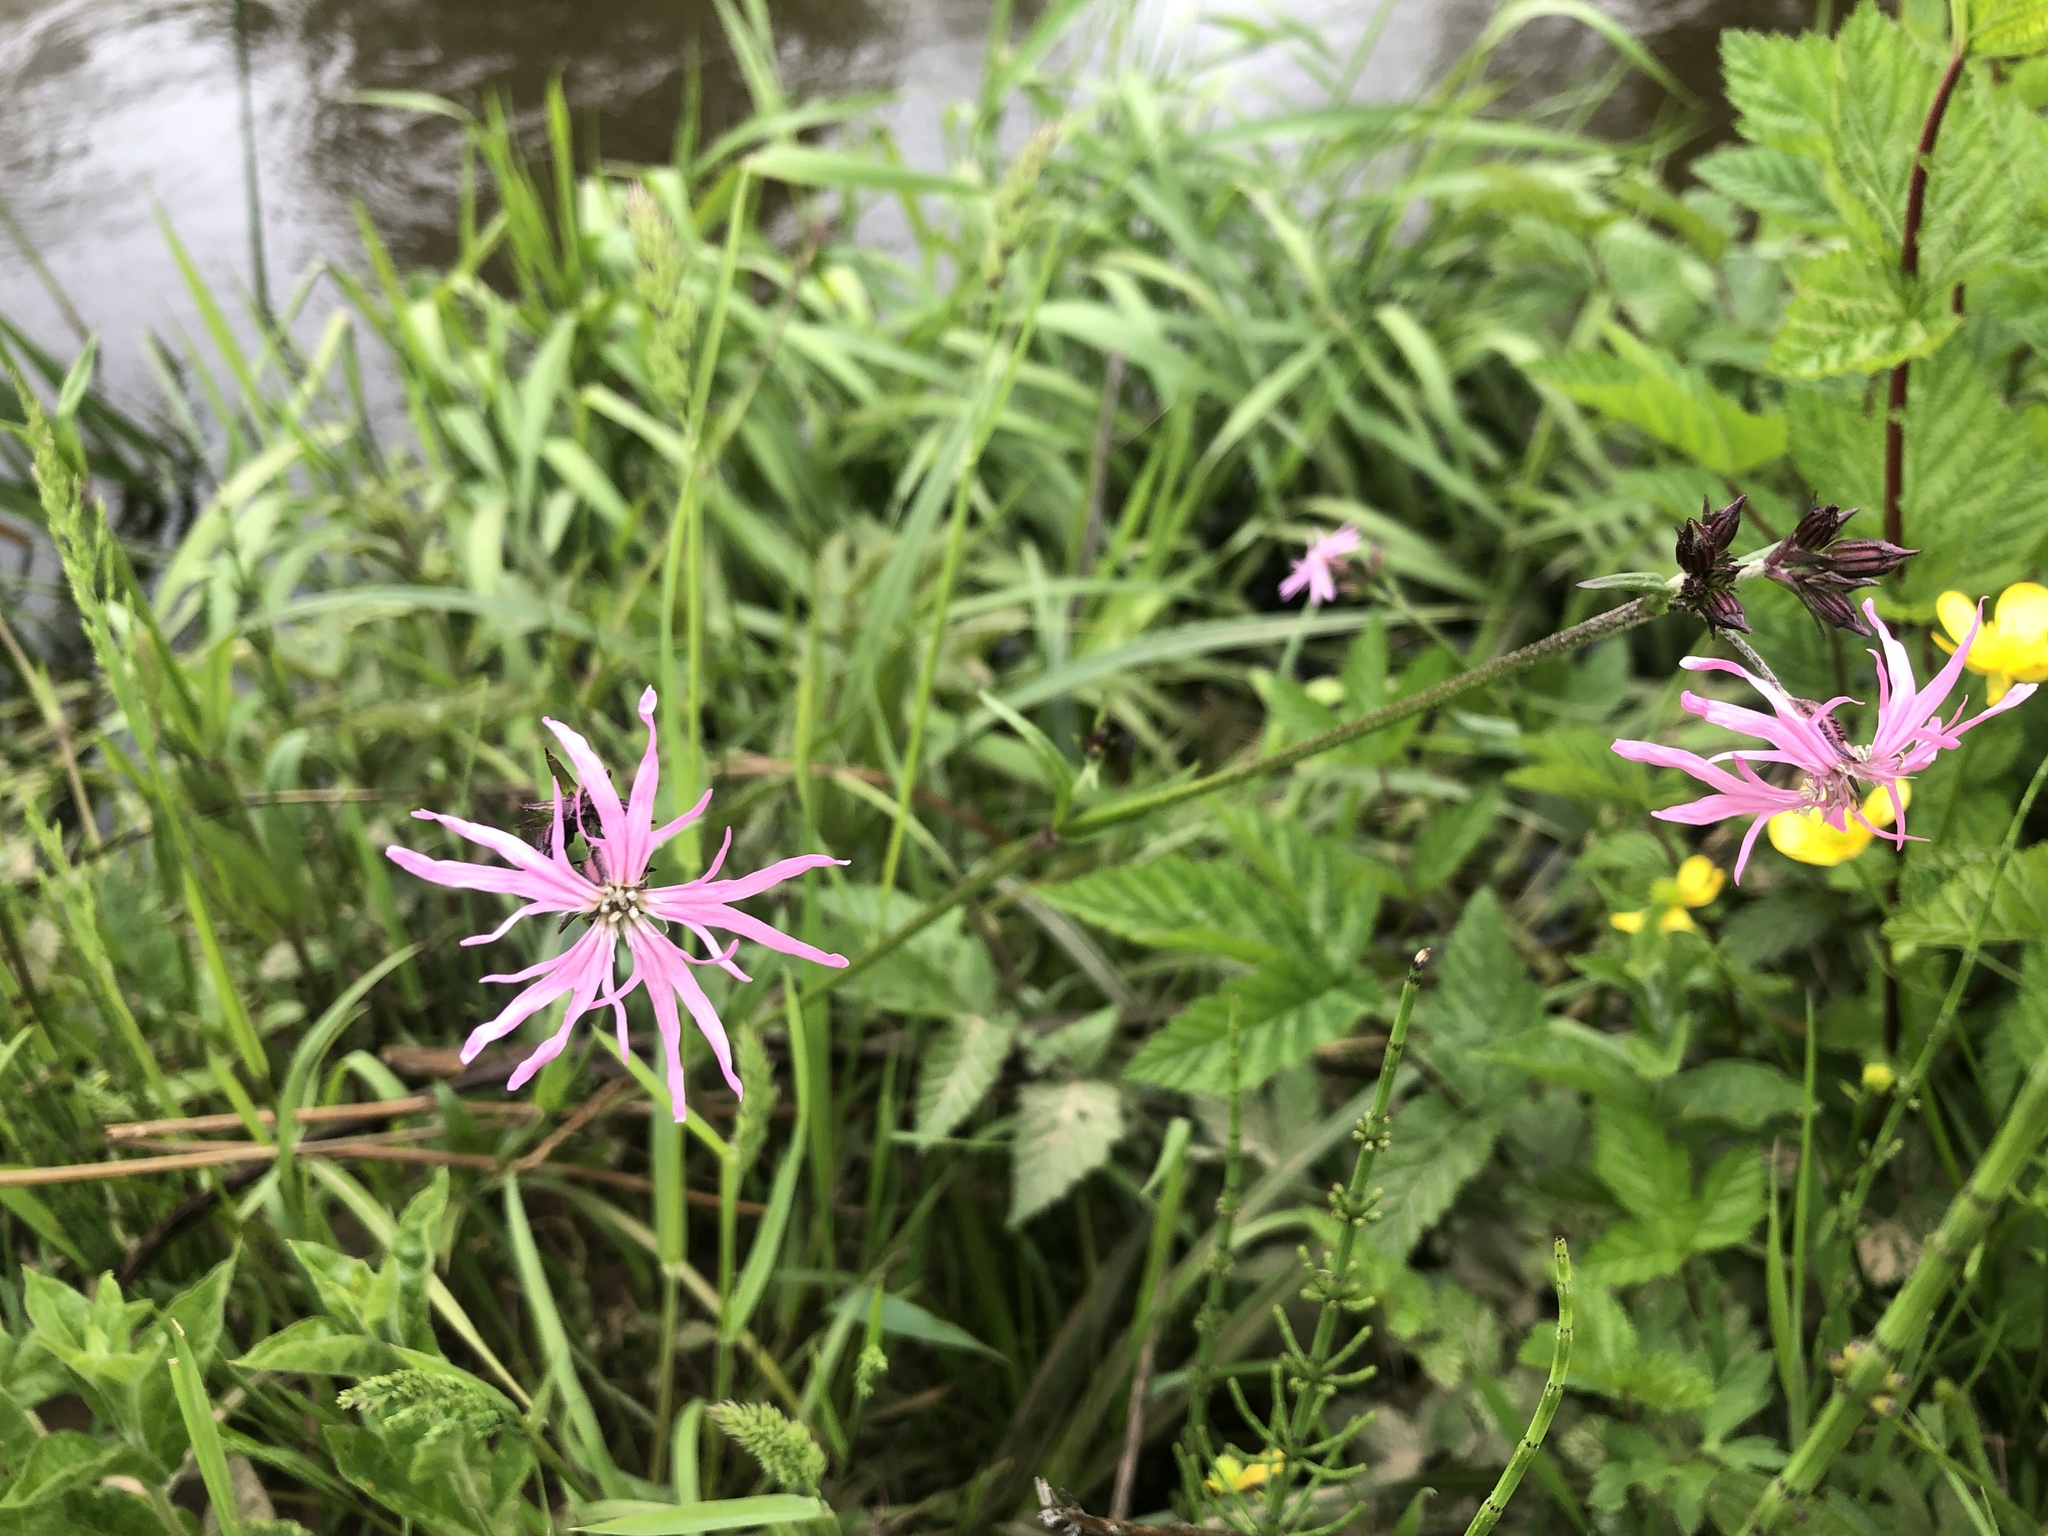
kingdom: Plantae
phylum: Tracheophyta
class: Magnoliopsida
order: Caryophyllales
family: Caryophyllaceae
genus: Silene
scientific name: Silene flos-cuculi
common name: Ragged-robin
